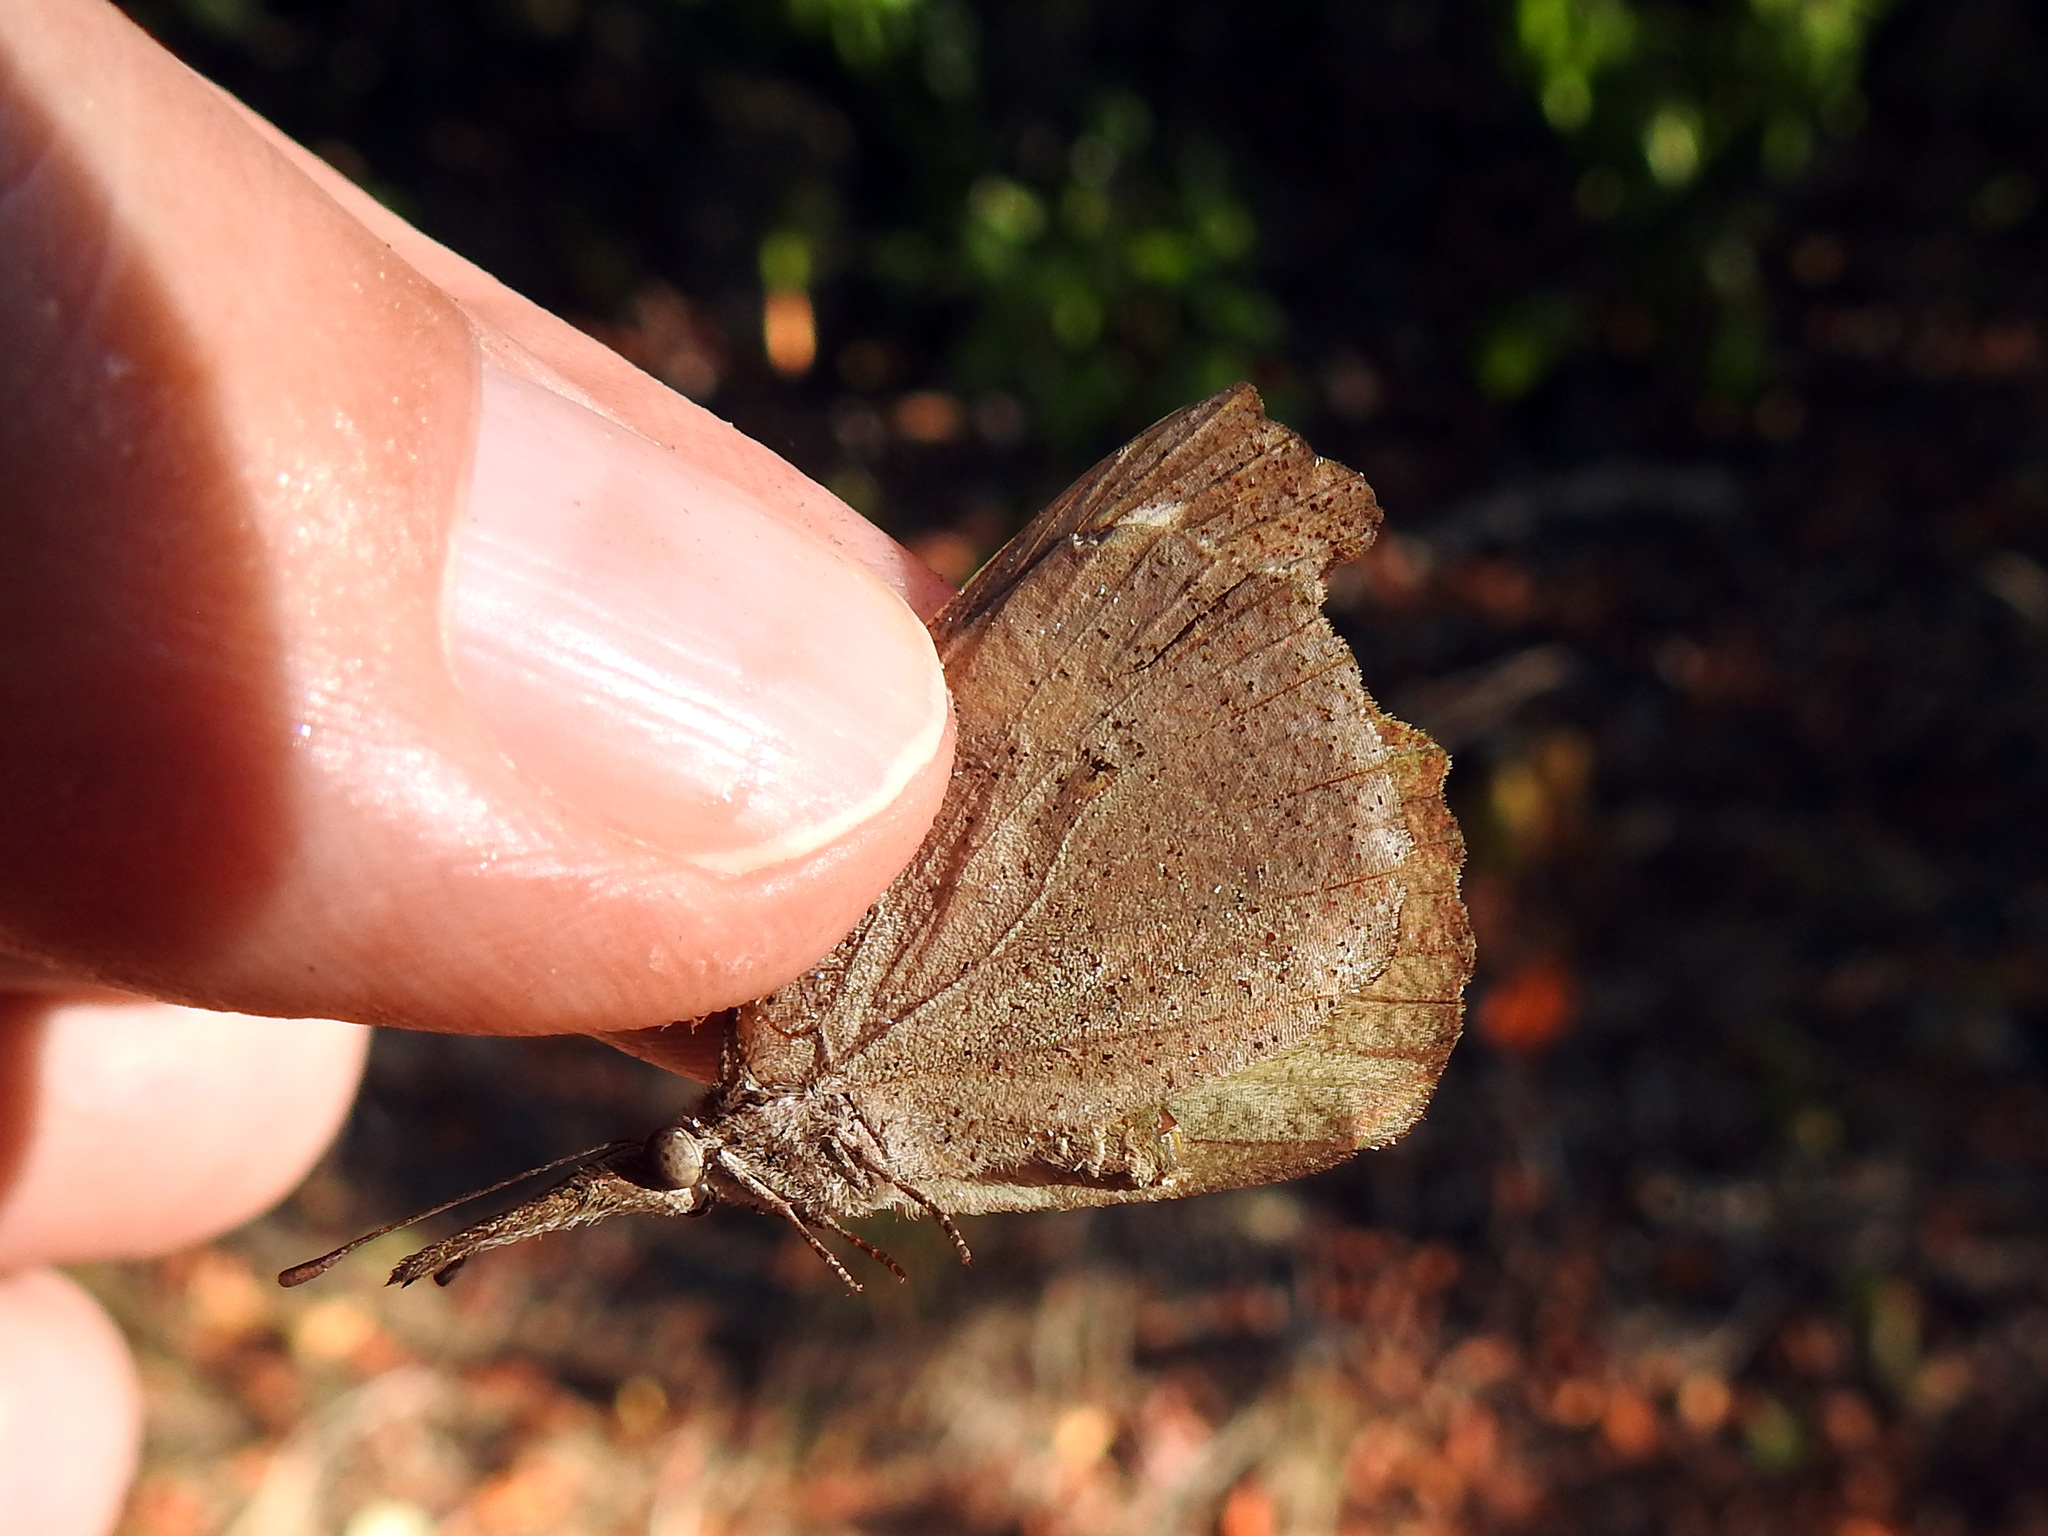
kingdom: Animalia
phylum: Arthropoda
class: Insecta
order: Lepidoptera
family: Nymphalidae
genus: Libytheana
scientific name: Libytheana motya
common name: Cuban snout
